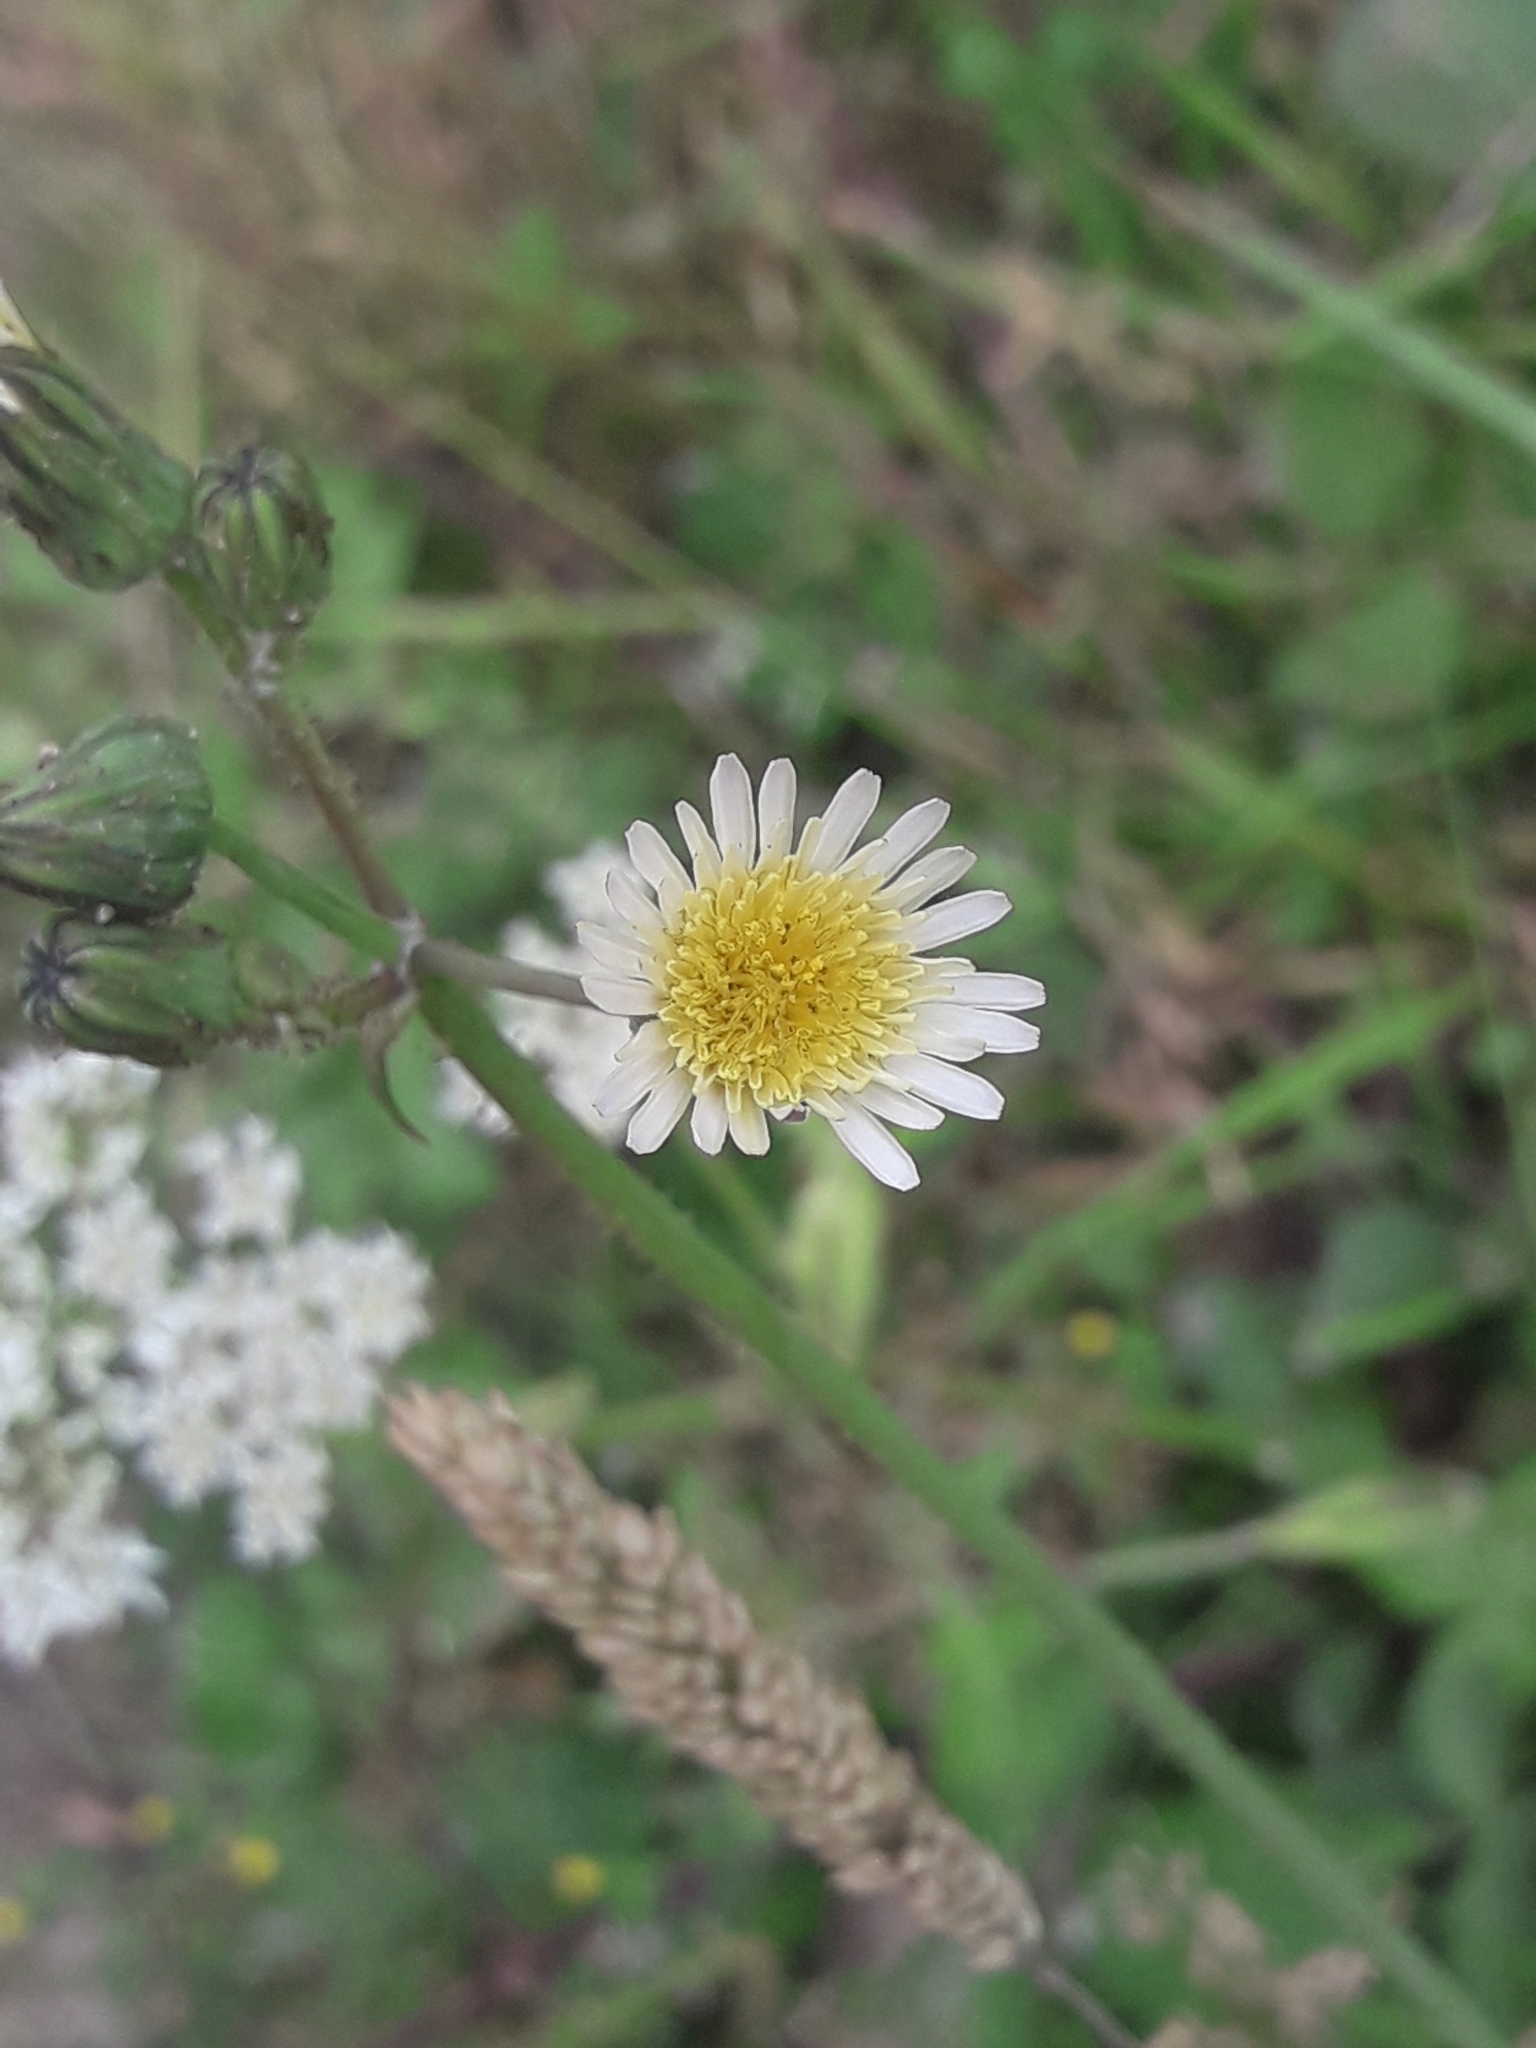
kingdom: Plantae
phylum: Tracheophyta
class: Magnoliopsida
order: Asterales
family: Asteraceae
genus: Sonchus
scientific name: Sonchus oleraceus
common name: Common sowthistle
